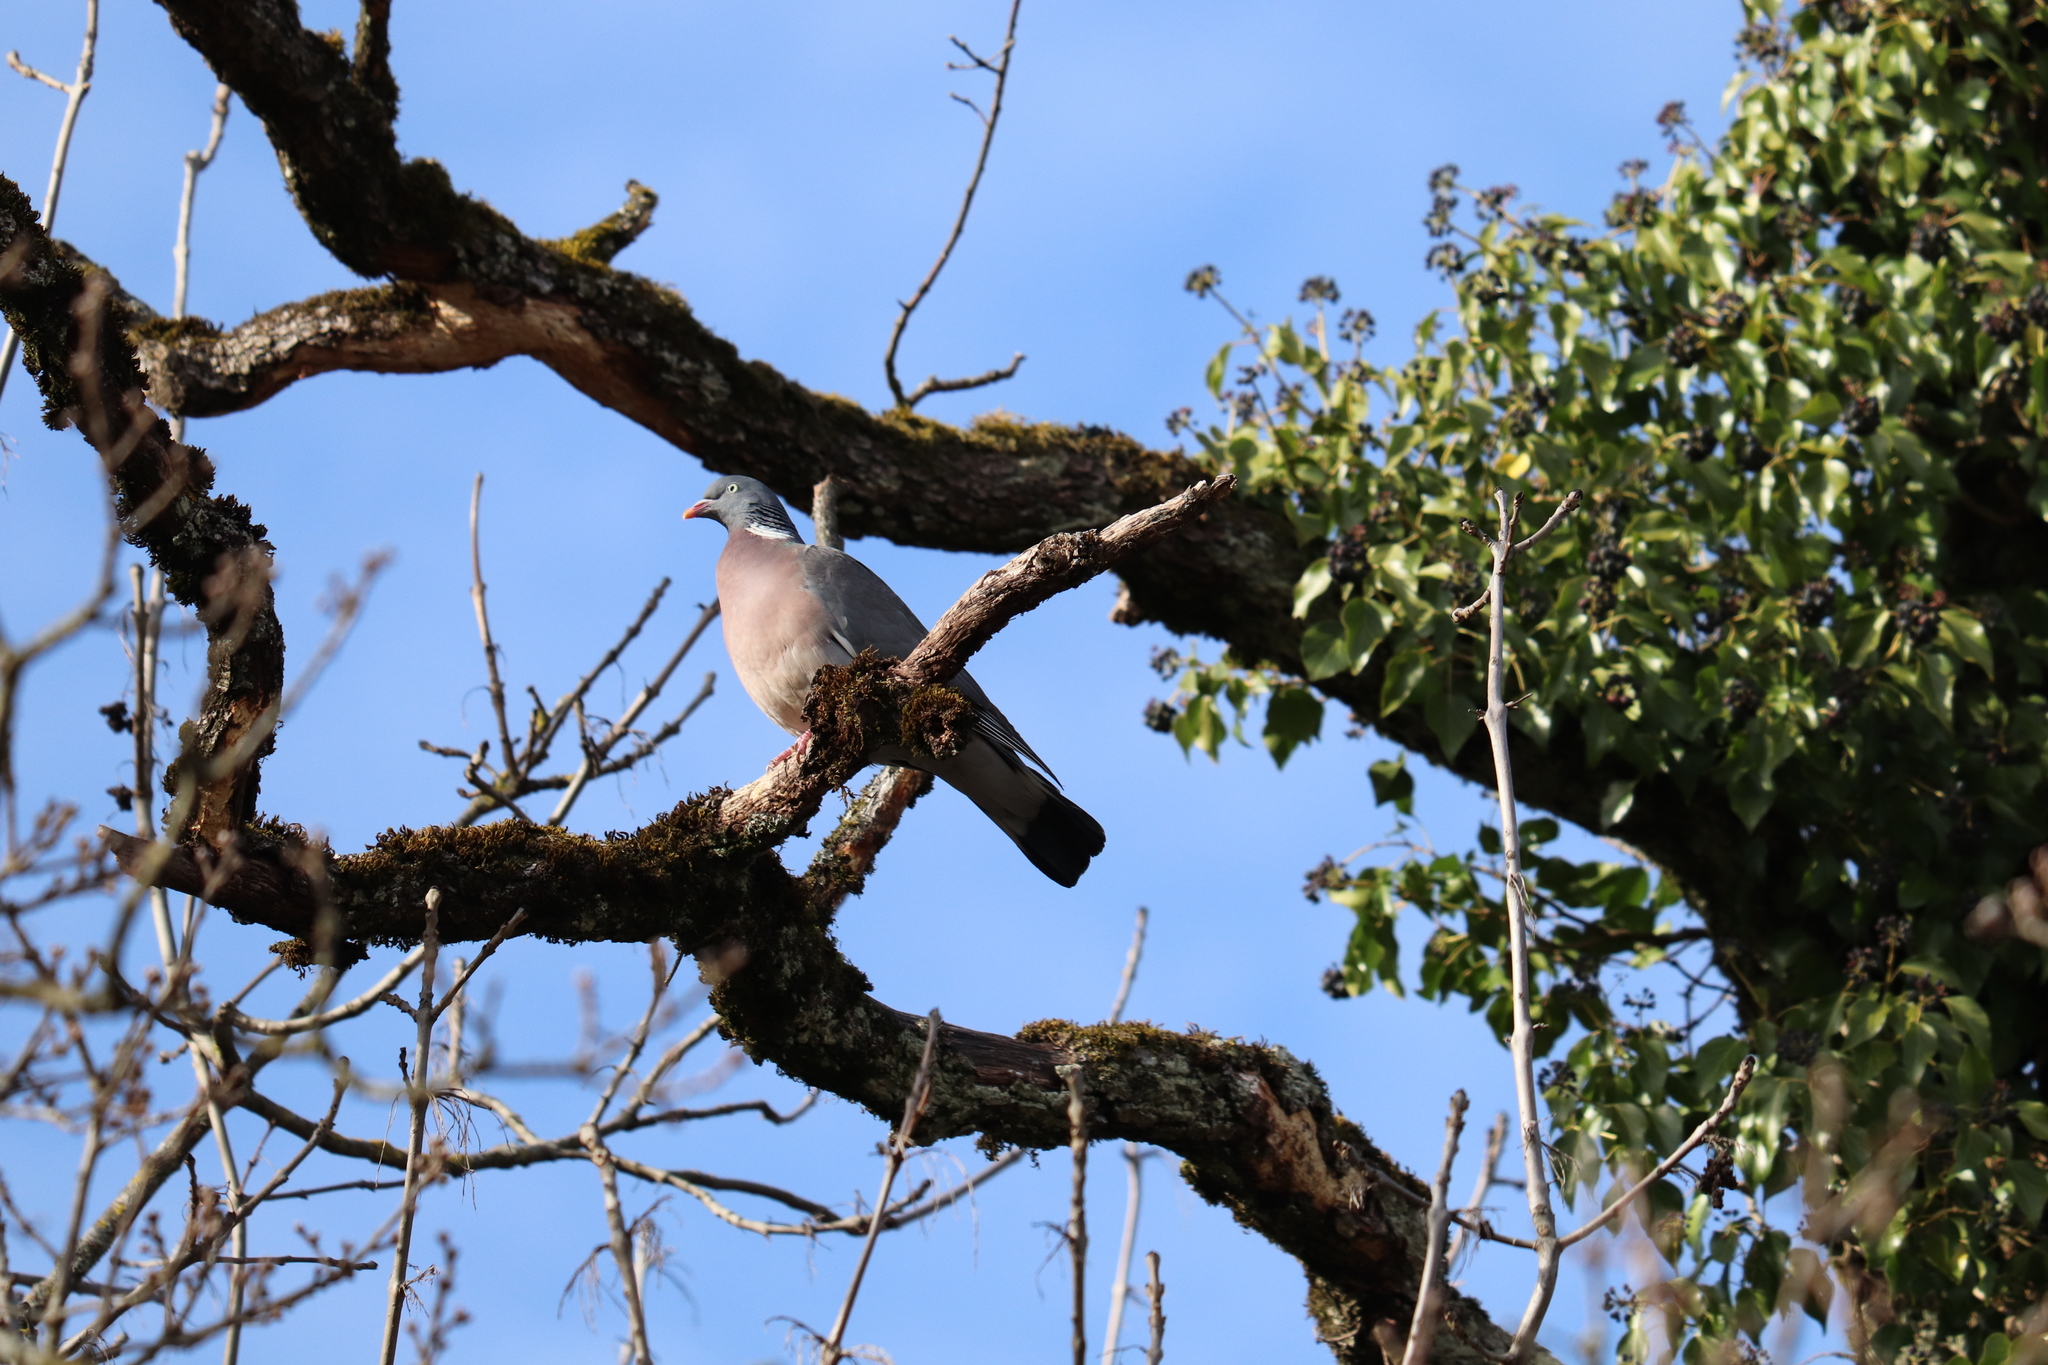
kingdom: Animalia
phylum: Chordata
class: Aves
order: Columbiformes
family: Columbidae
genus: Columba
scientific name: Columba palumbus
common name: Common wood pigeon
